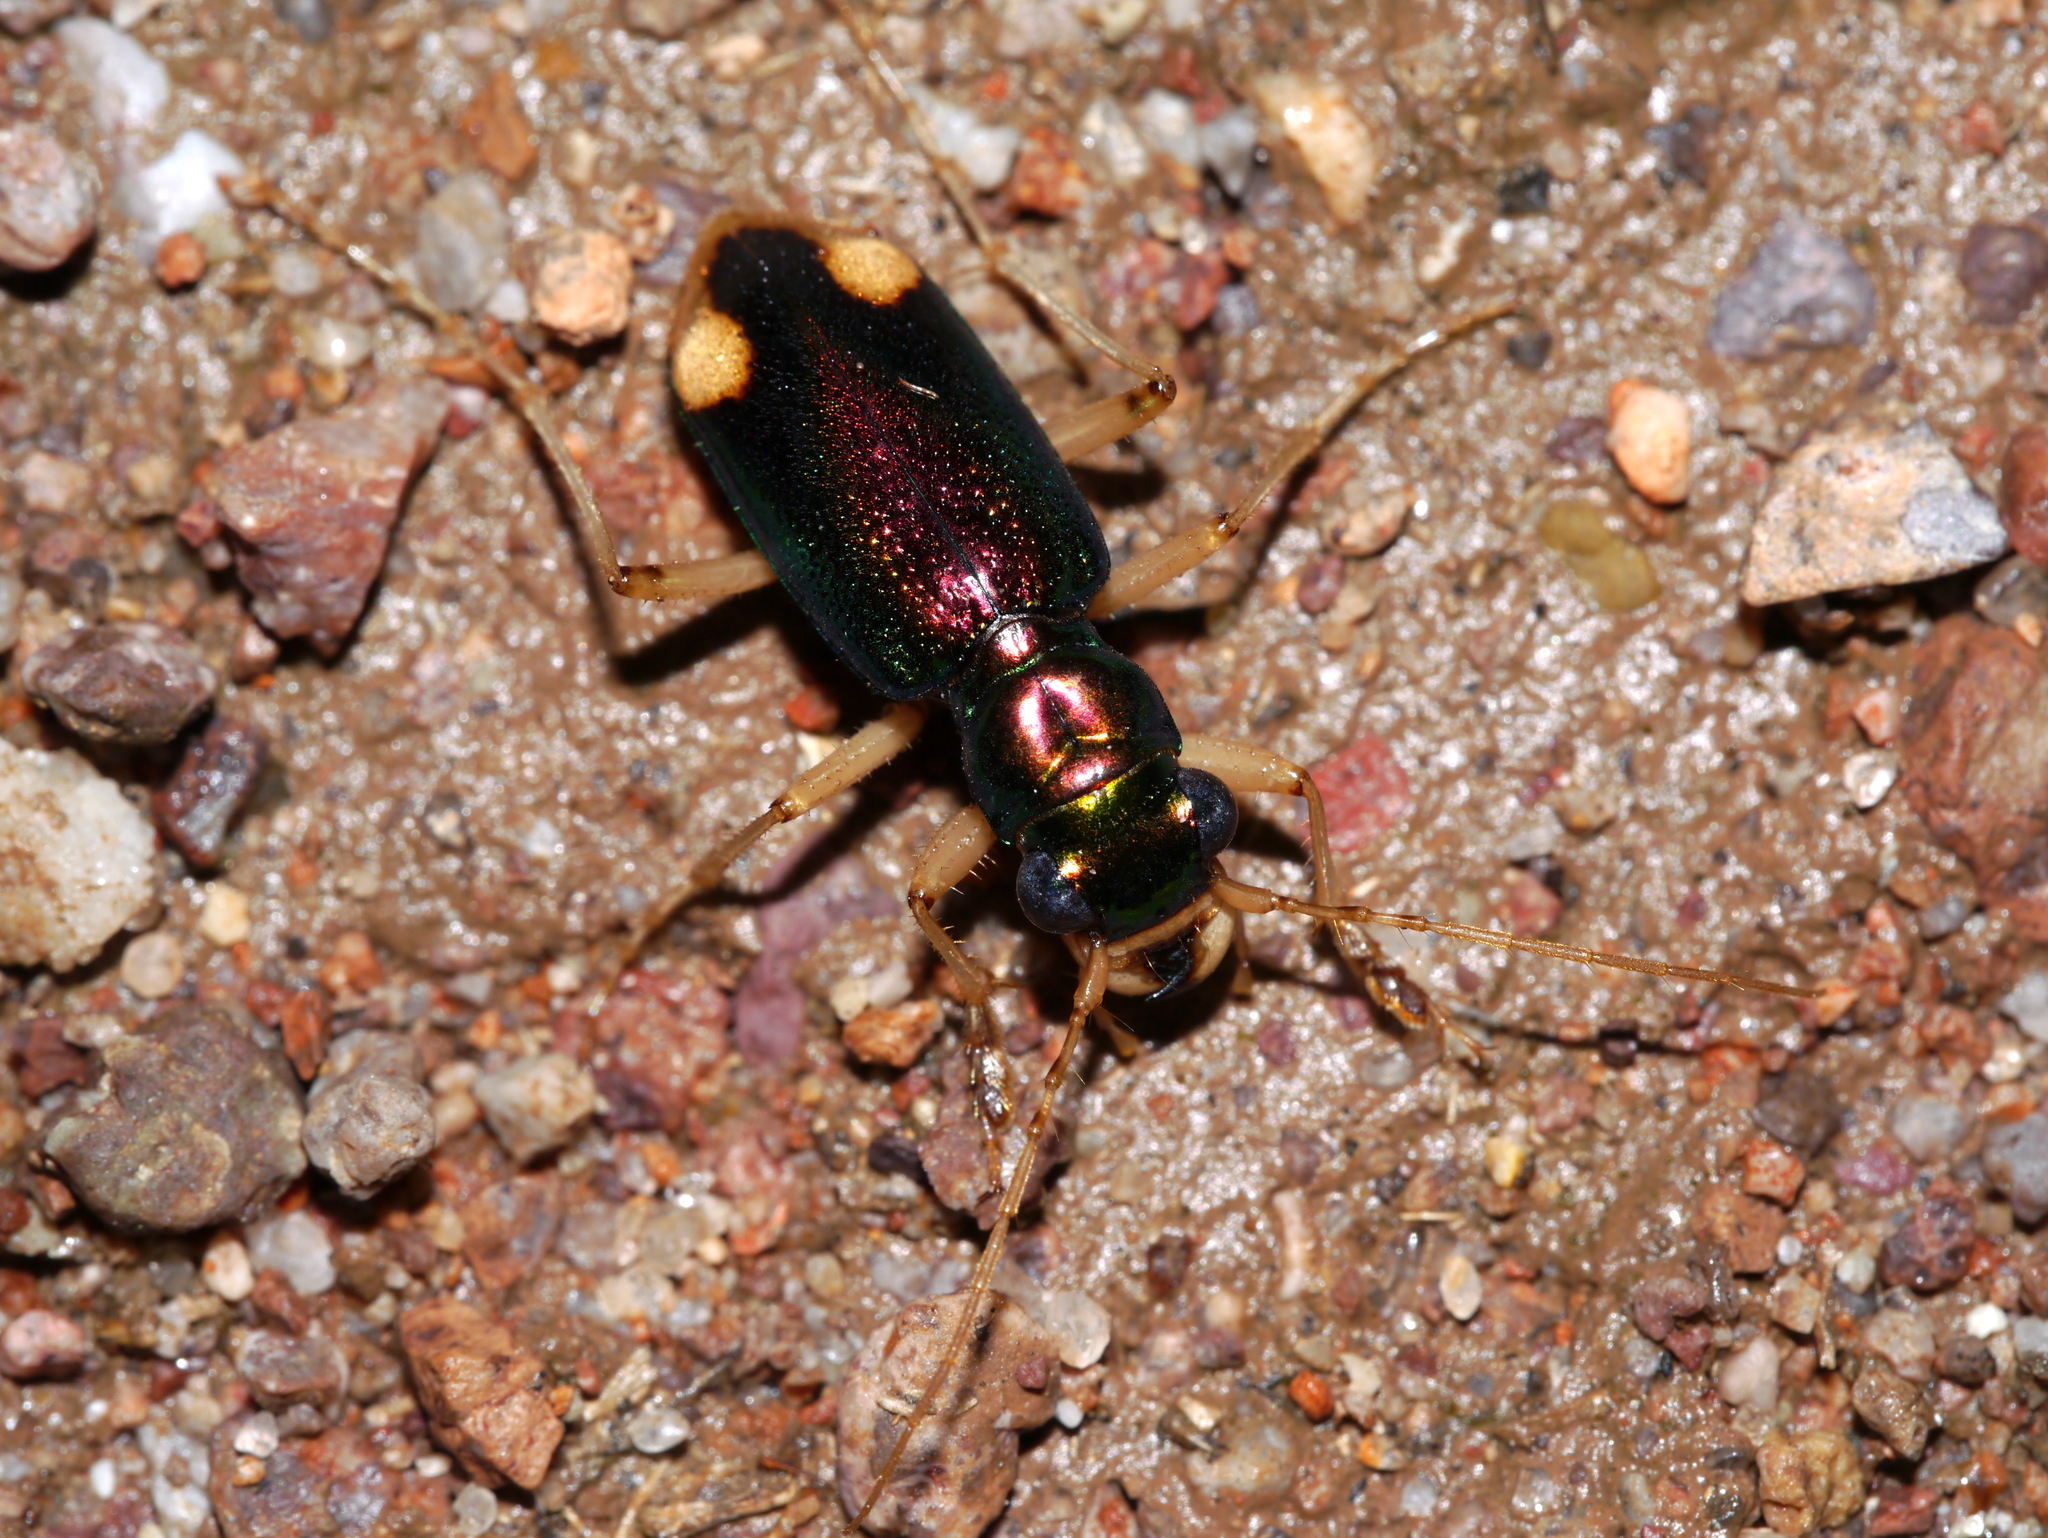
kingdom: Animalia
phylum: Arthropoda
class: Insecta
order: Coleoptera
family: Carabidae
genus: Tetracha
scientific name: Tetracha carolina
